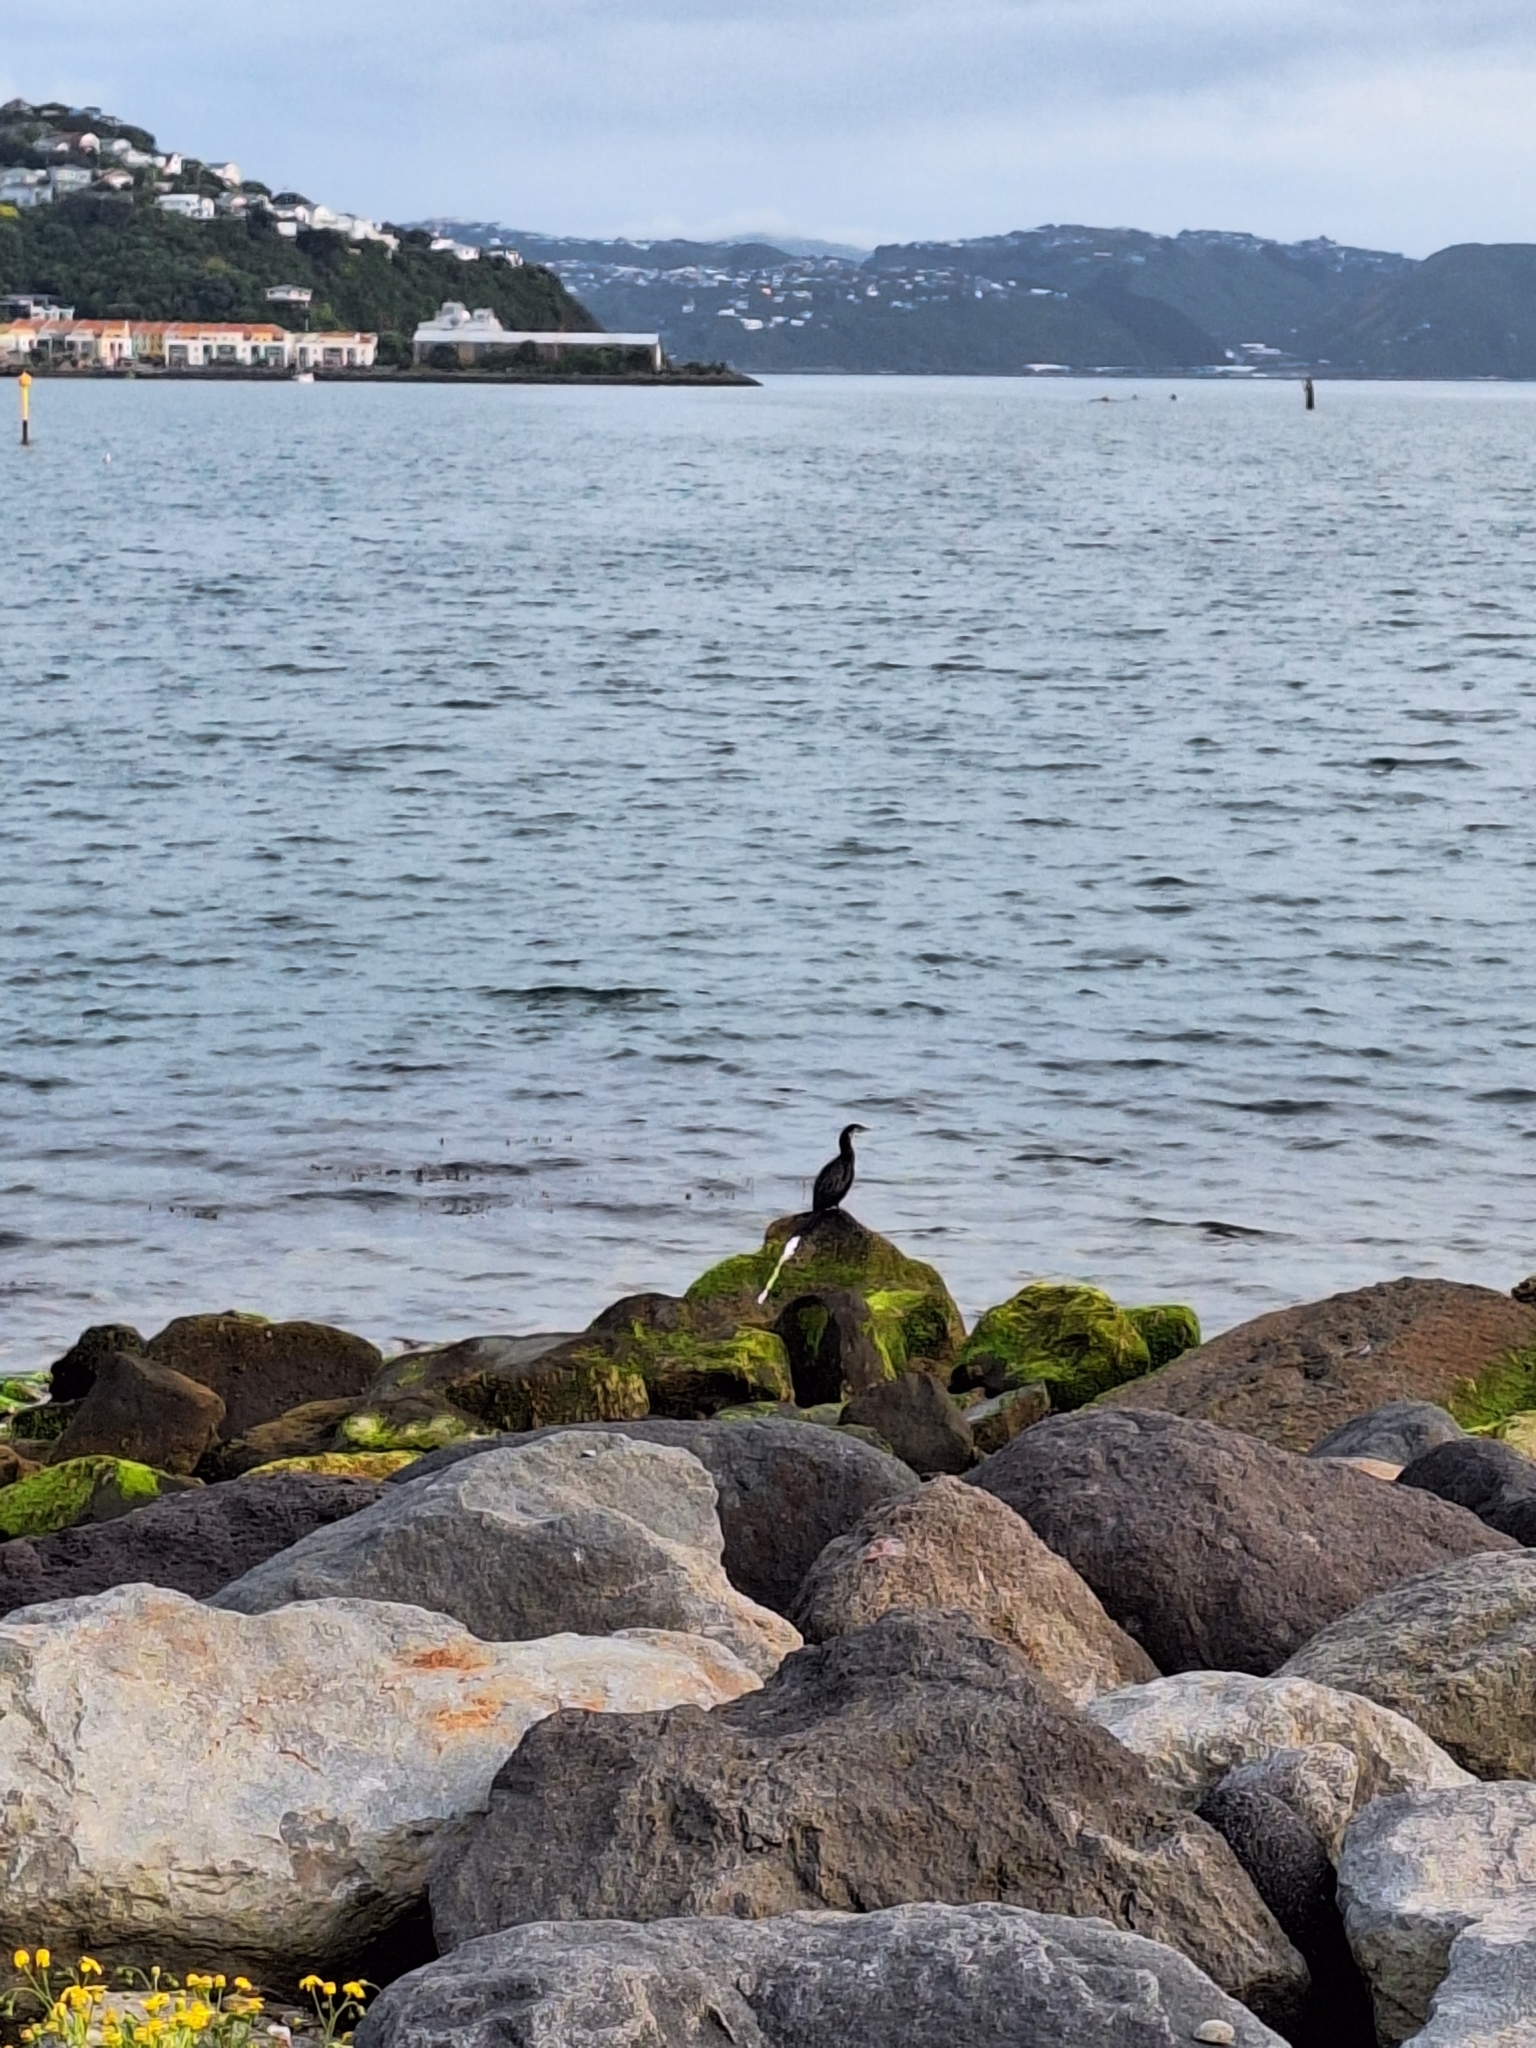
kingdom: Animalia
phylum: Chordata
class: Aves
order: Suliformes
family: Phalacrocoracidae
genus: Microcarbo
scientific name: Microcarbo melanoleucos
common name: Little pied cormorant
